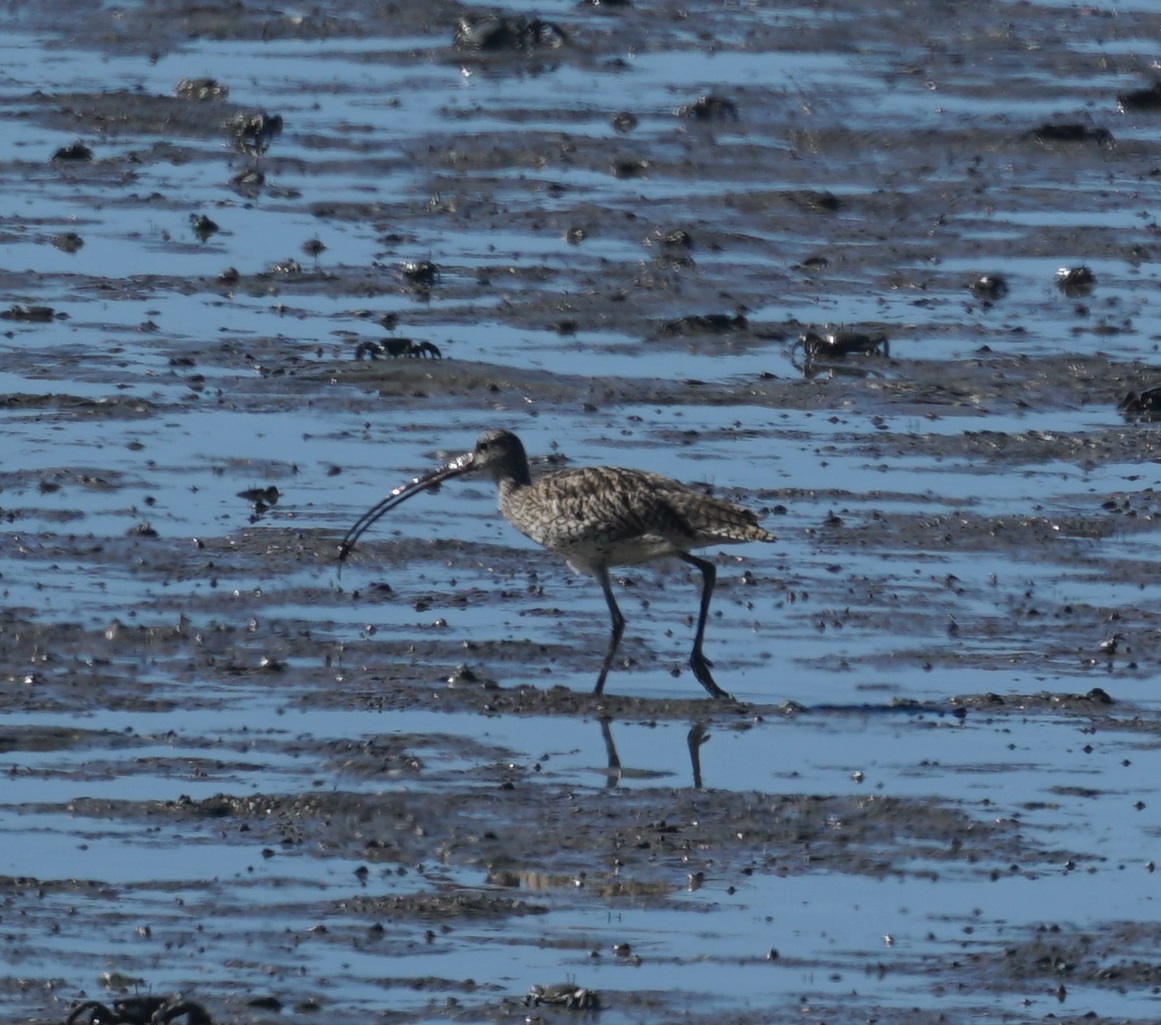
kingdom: Animalia
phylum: Chordata
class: Aves
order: Charadriiformes
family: Scolopacidae
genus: Numenius
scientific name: Numenius madagascariensis
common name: Far eastern curlew
